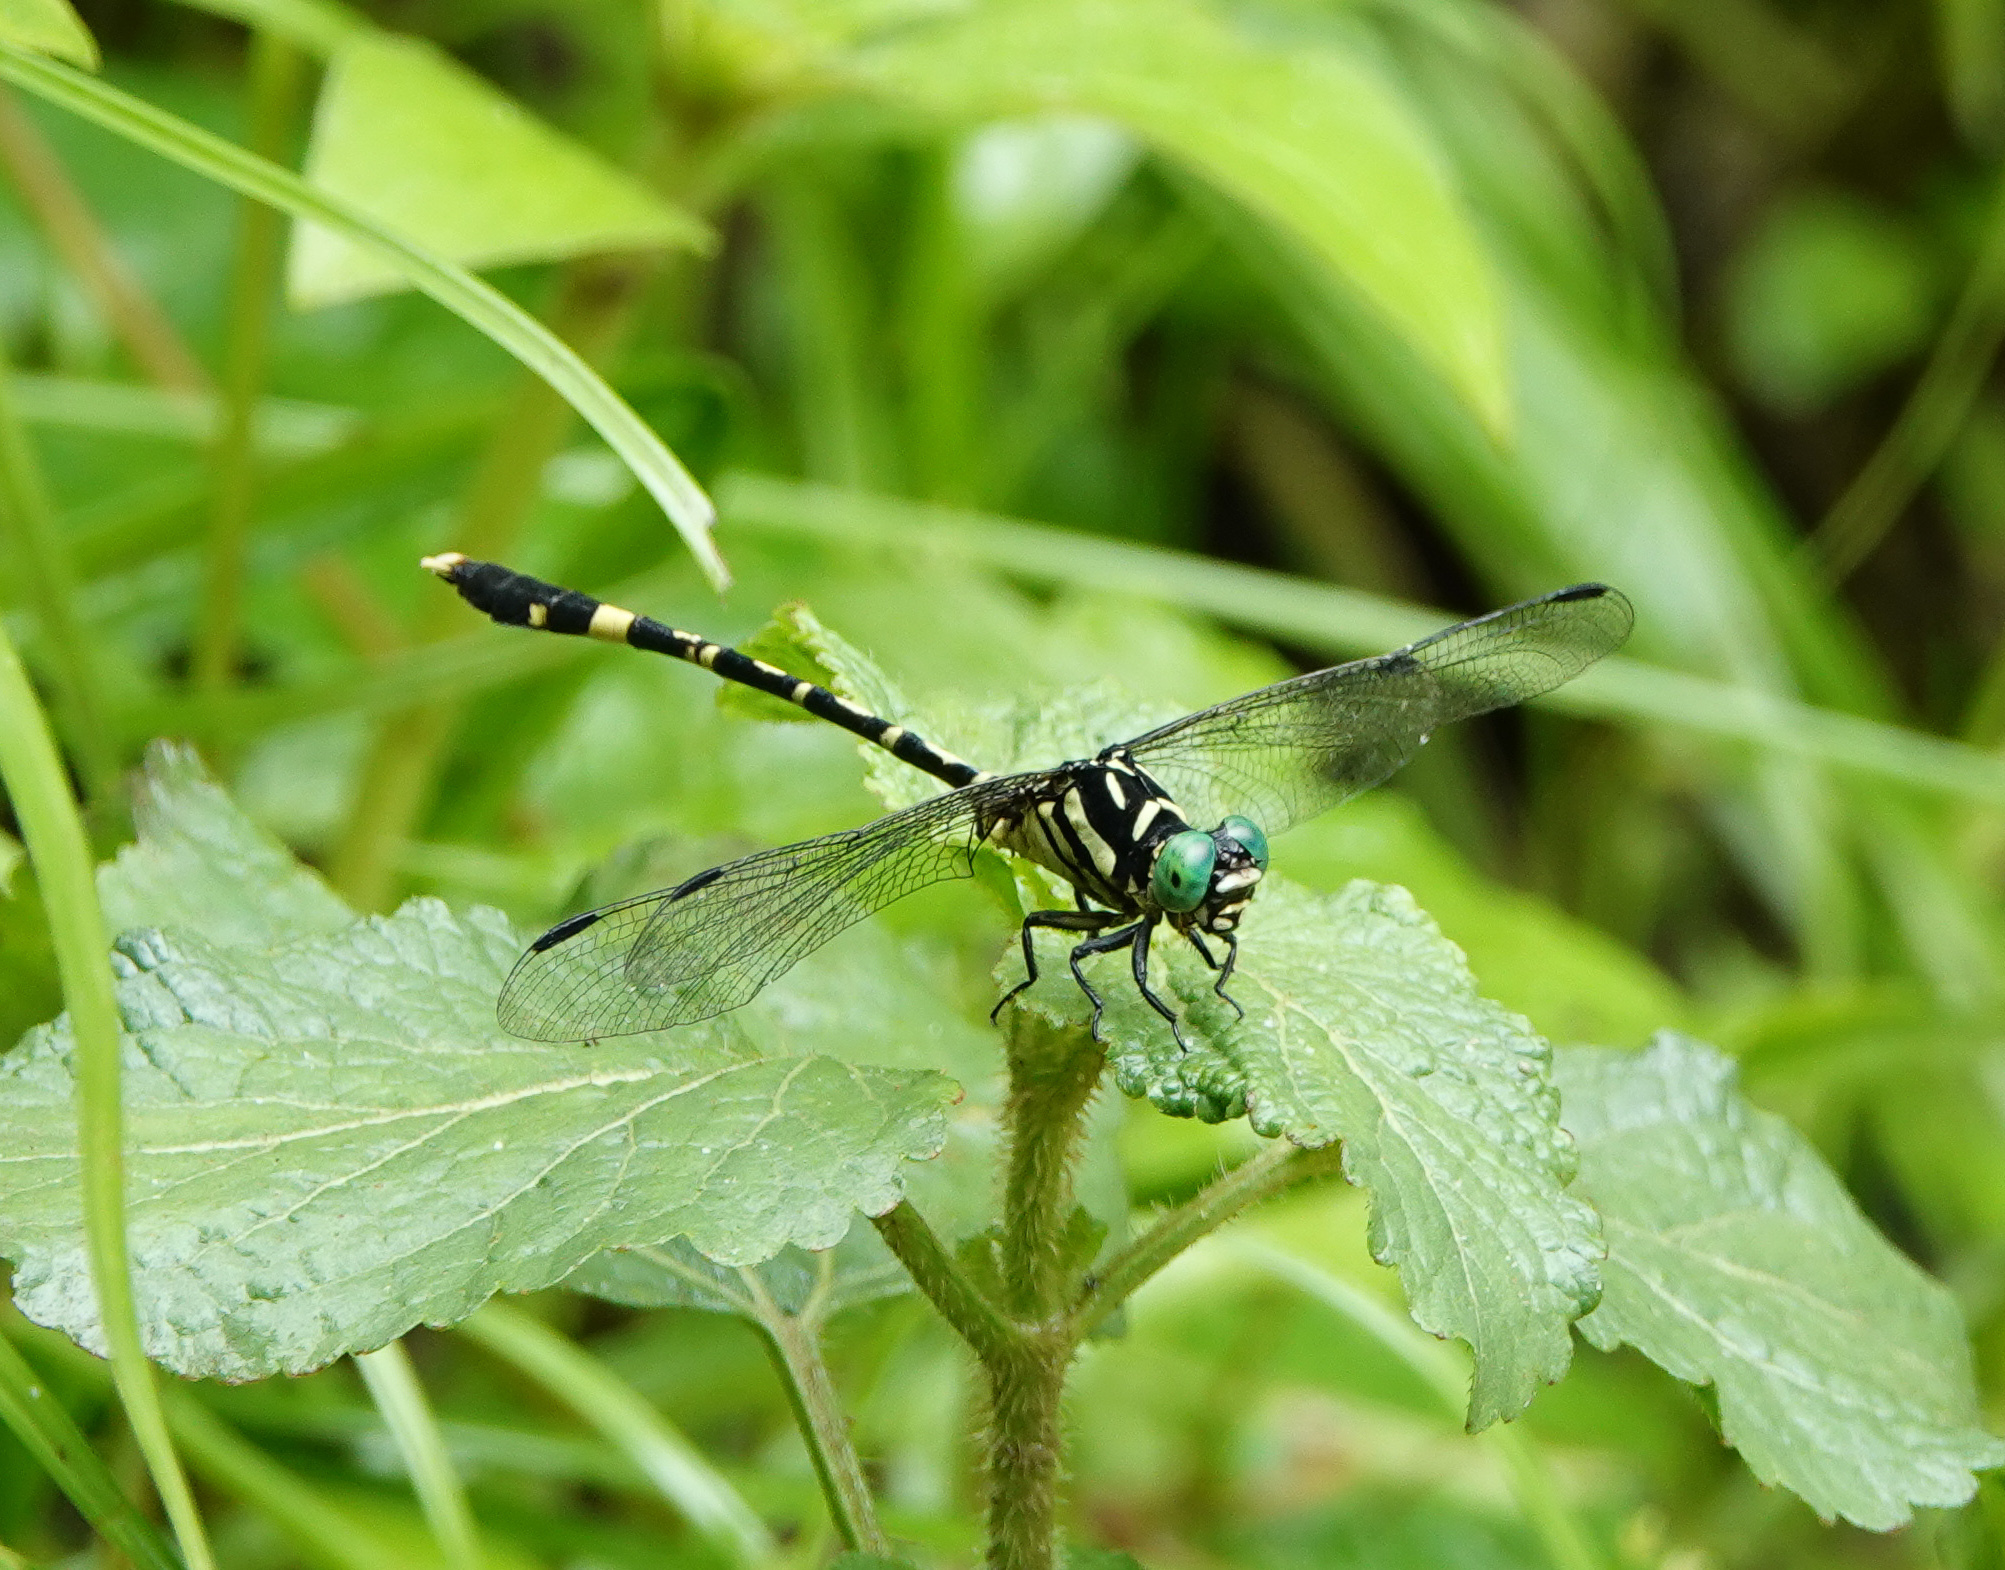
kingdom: Animalia
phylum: Arthropoda
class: Insecta
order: Odonata
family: Gomphidae
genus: Orientogomphus
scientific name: Orientogomphus indicus
